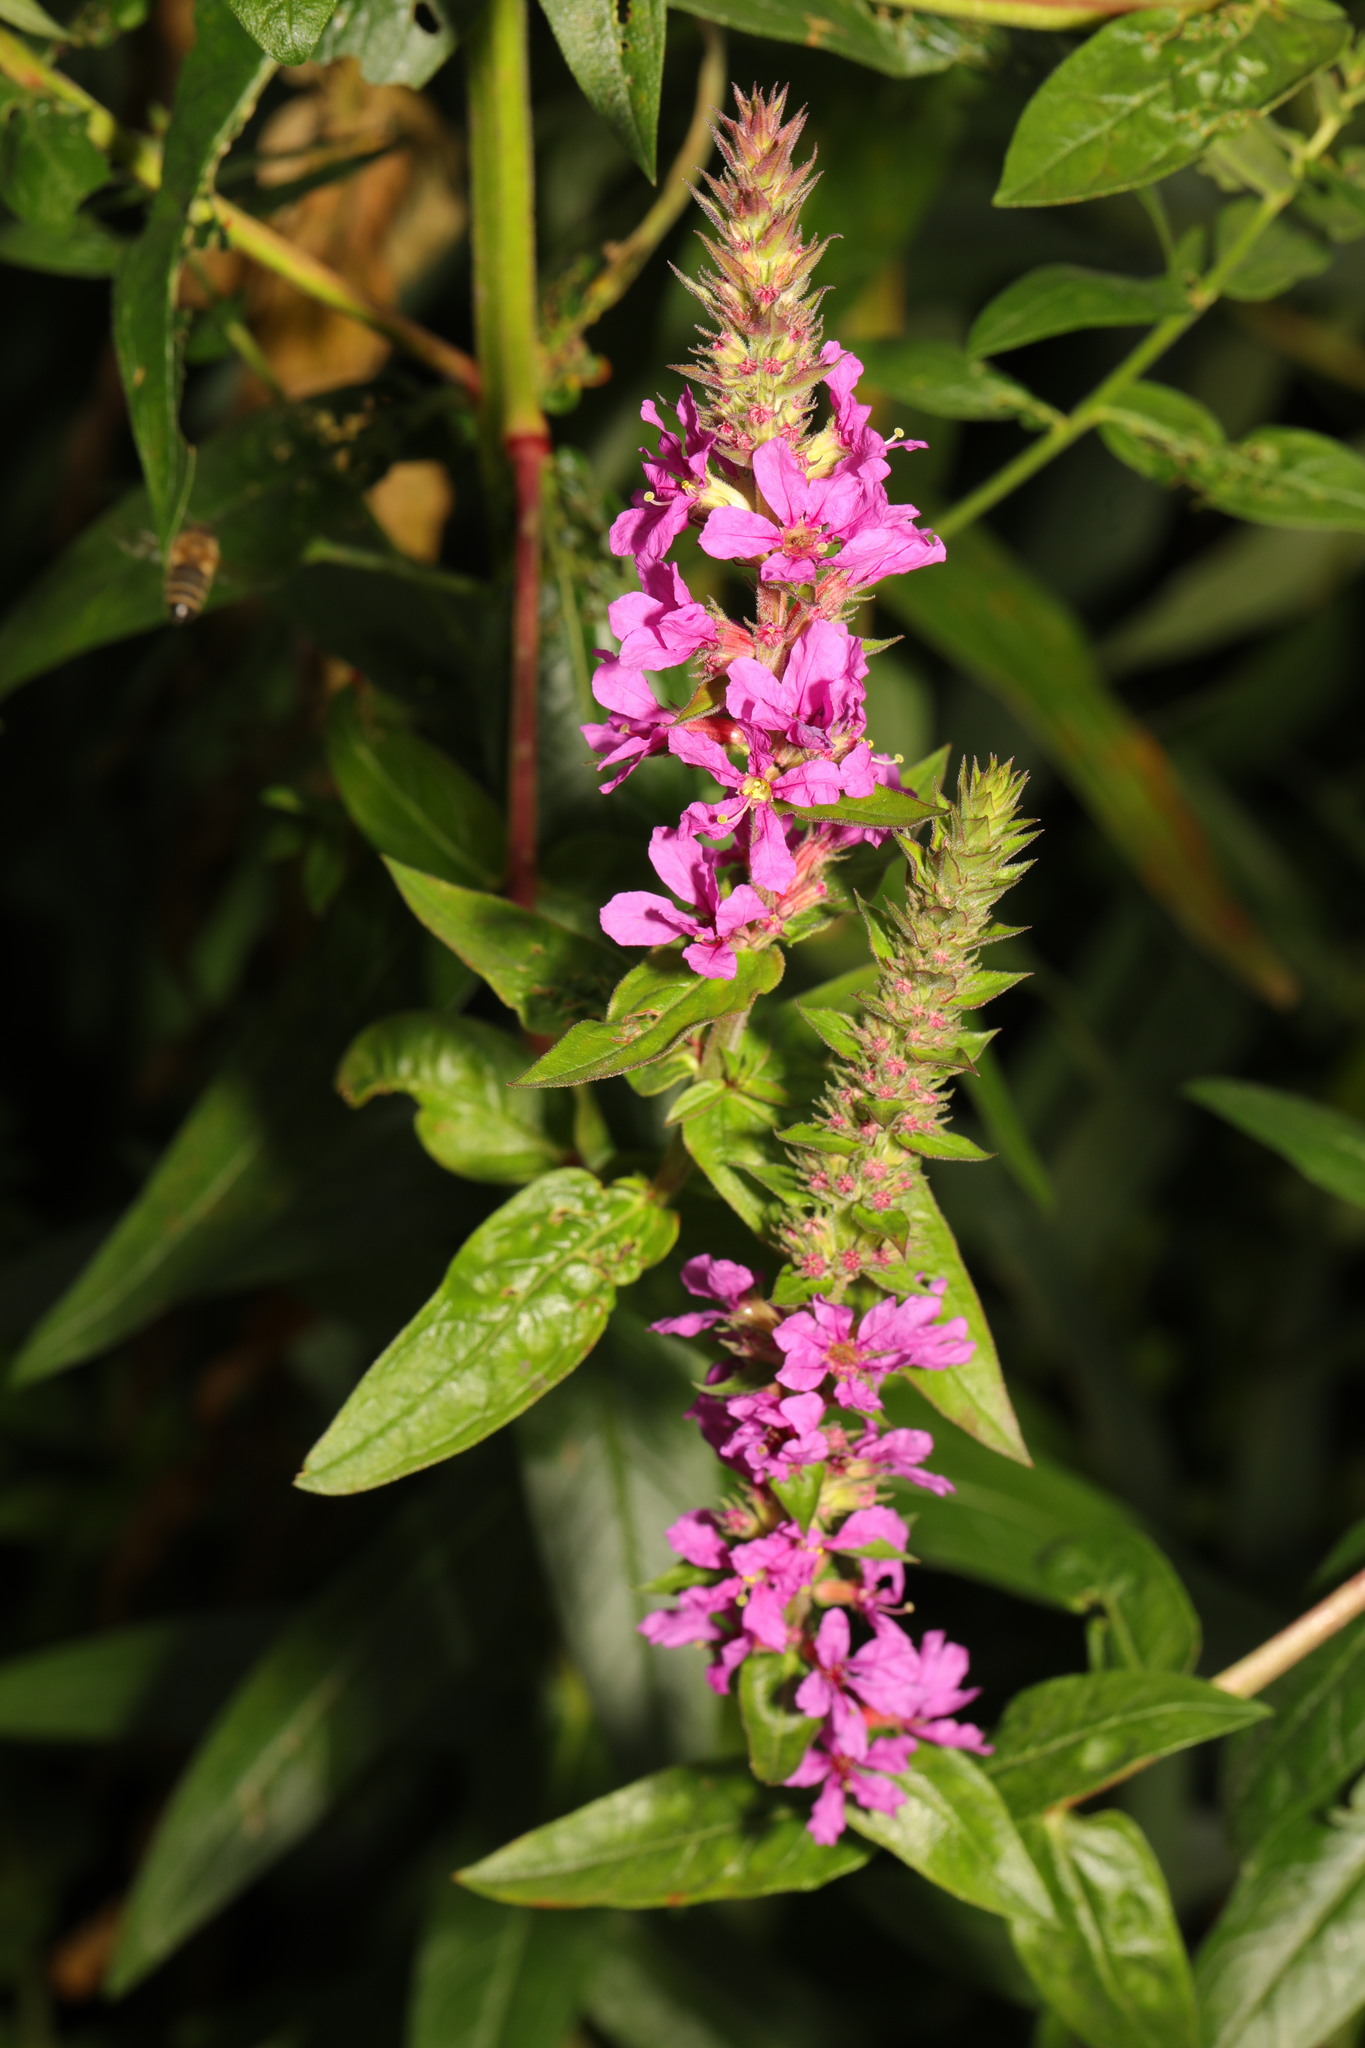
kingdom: Plantae
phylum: Tracheophyta
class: Magnoliopsida
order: Myrtales
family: Lythraceae
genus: Lythrum
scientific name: Lythrum salicaria
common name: Purple loosestrife
